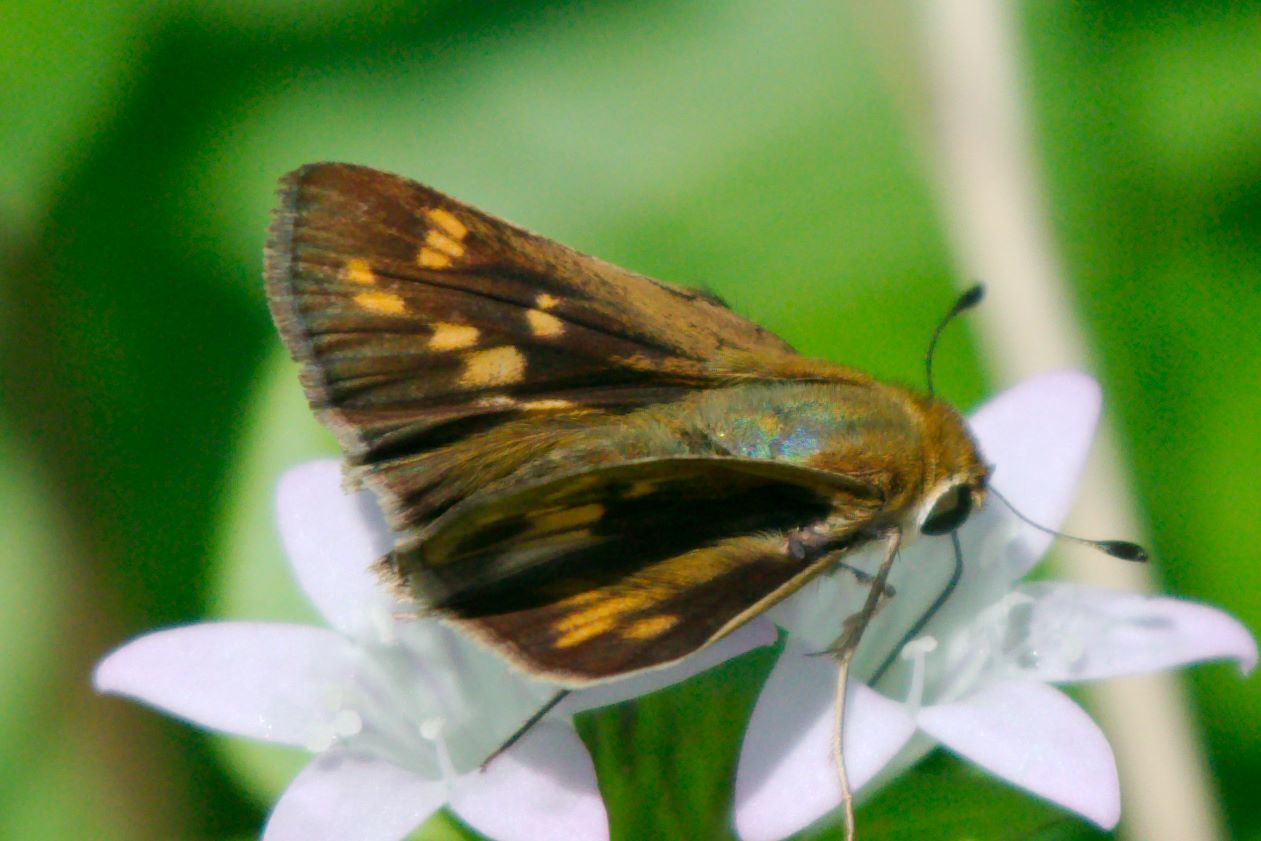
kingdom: Animalia
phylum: Arthropoda
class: Insecta
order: Lepidoptera
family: Hesperiidae
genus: Hylephila
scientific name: Hylephila phyleus
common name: Fiery skipper
